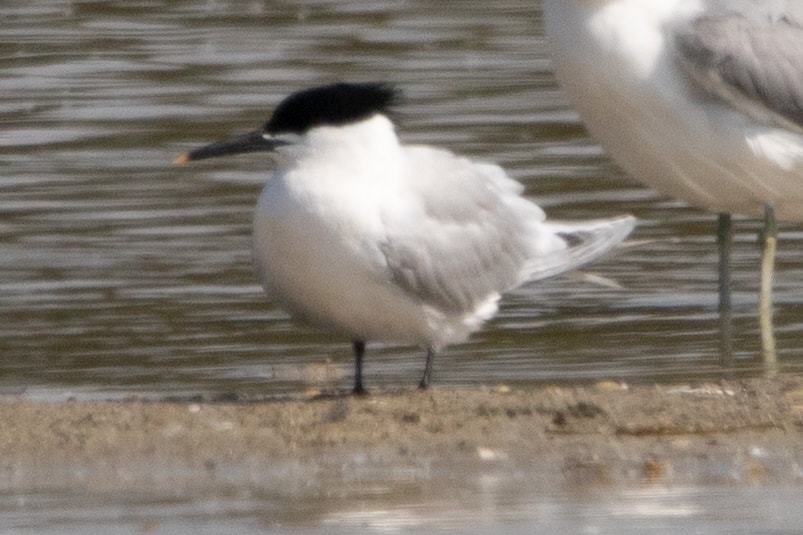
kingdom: Animalia
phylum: Chordata
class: Aves
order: Charadriiformes
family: Laridae
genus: Thalasseus
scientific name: Thalasseus sandvicensis
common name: Sandwich tern
